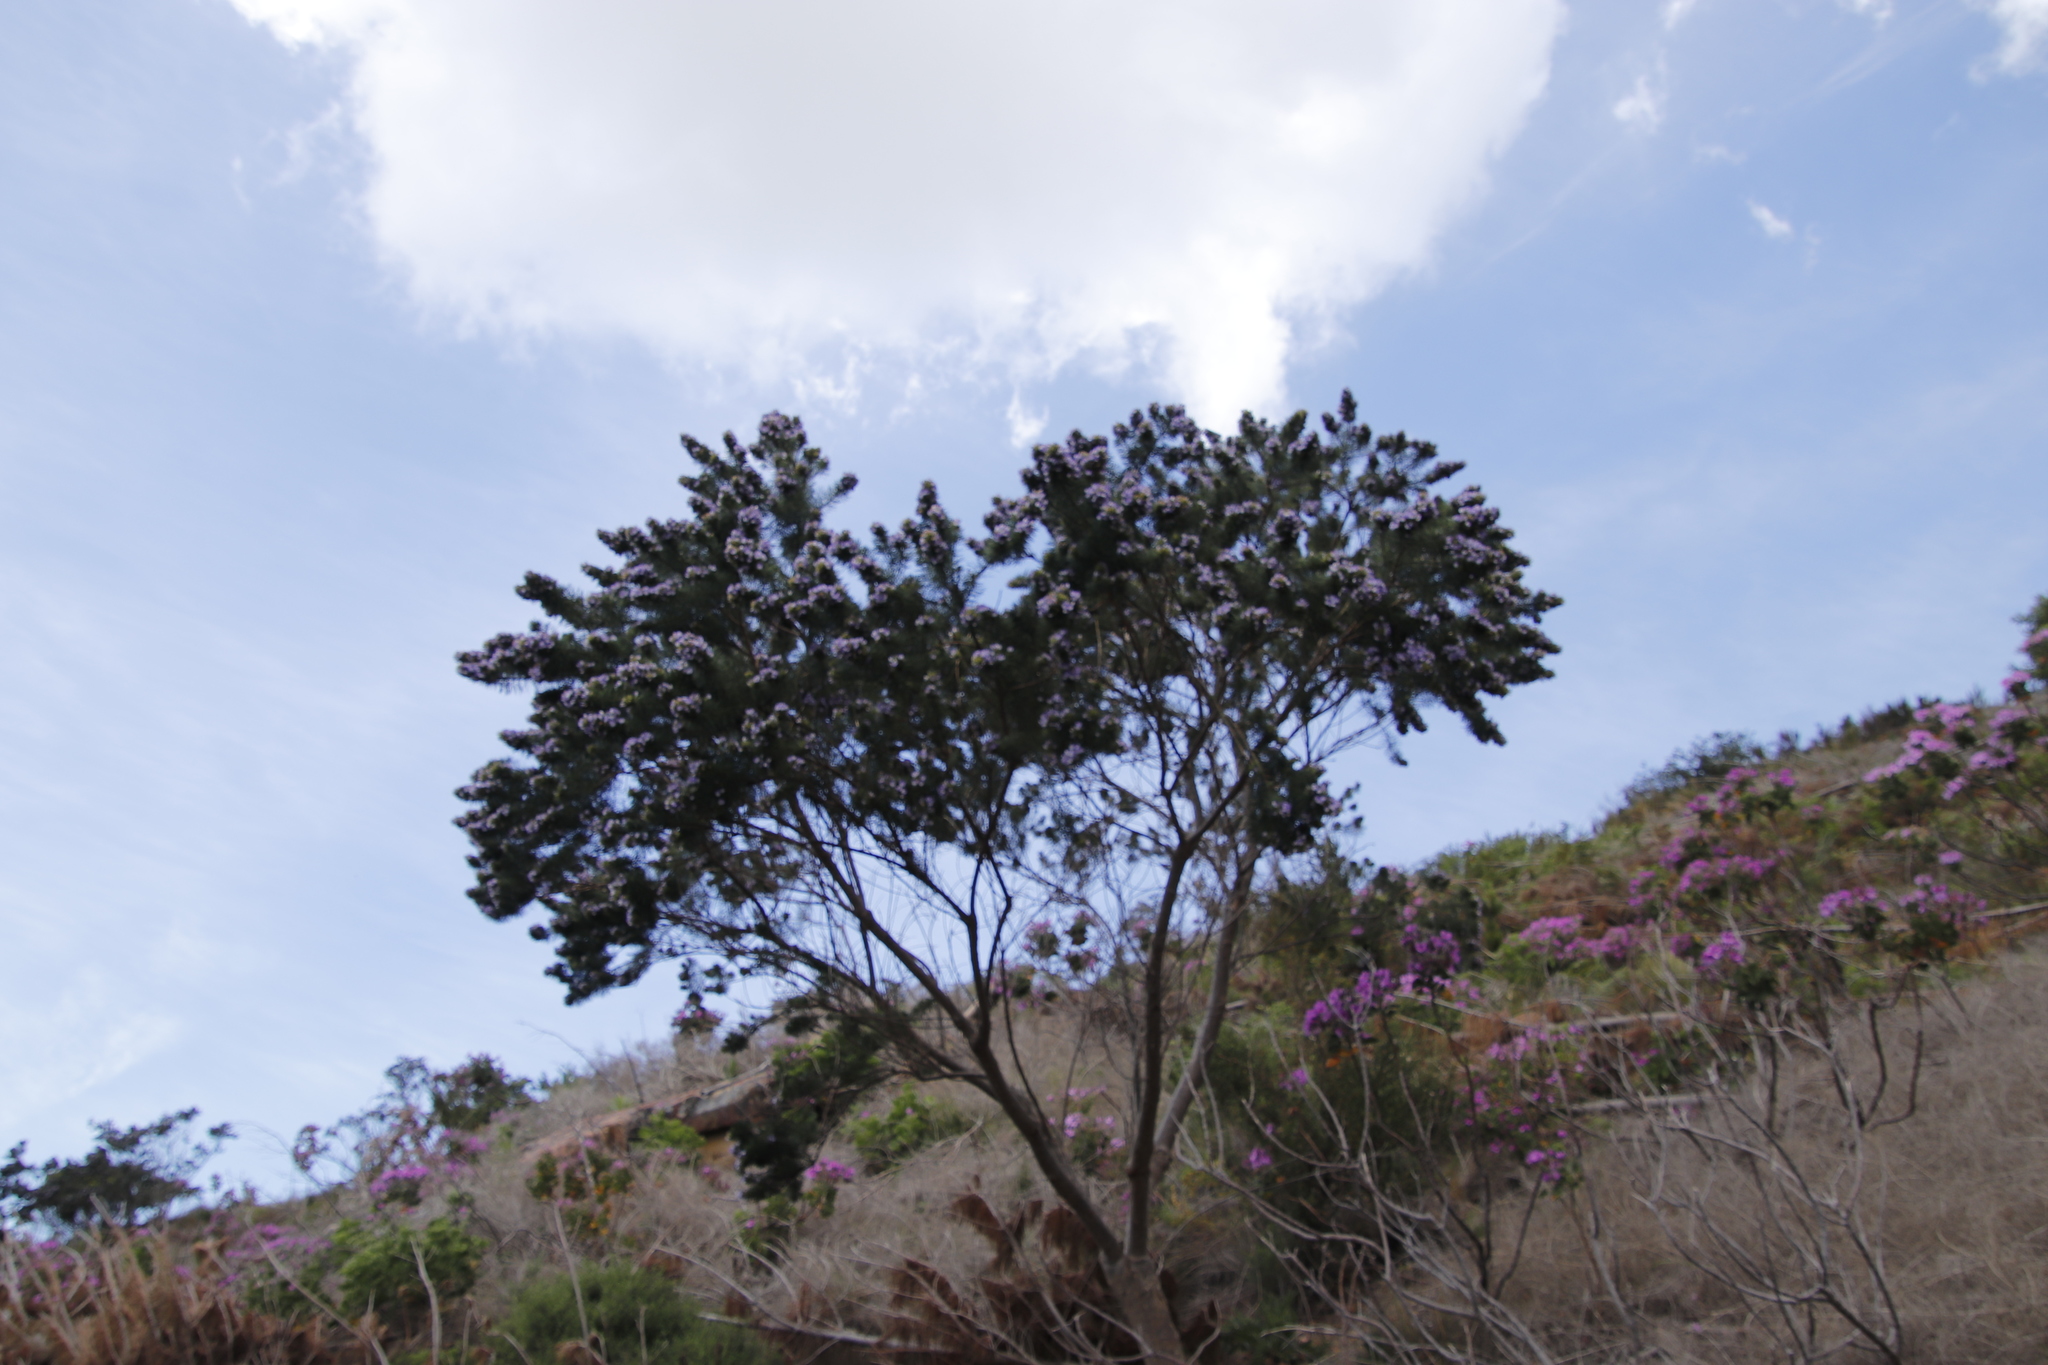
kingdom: Plantae
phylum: Tracheophyta
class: Magnoliopsida
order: Fabales
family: Fabaceae
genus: Psoralea
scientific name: Psoralea pinnata
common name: African scurfpea
